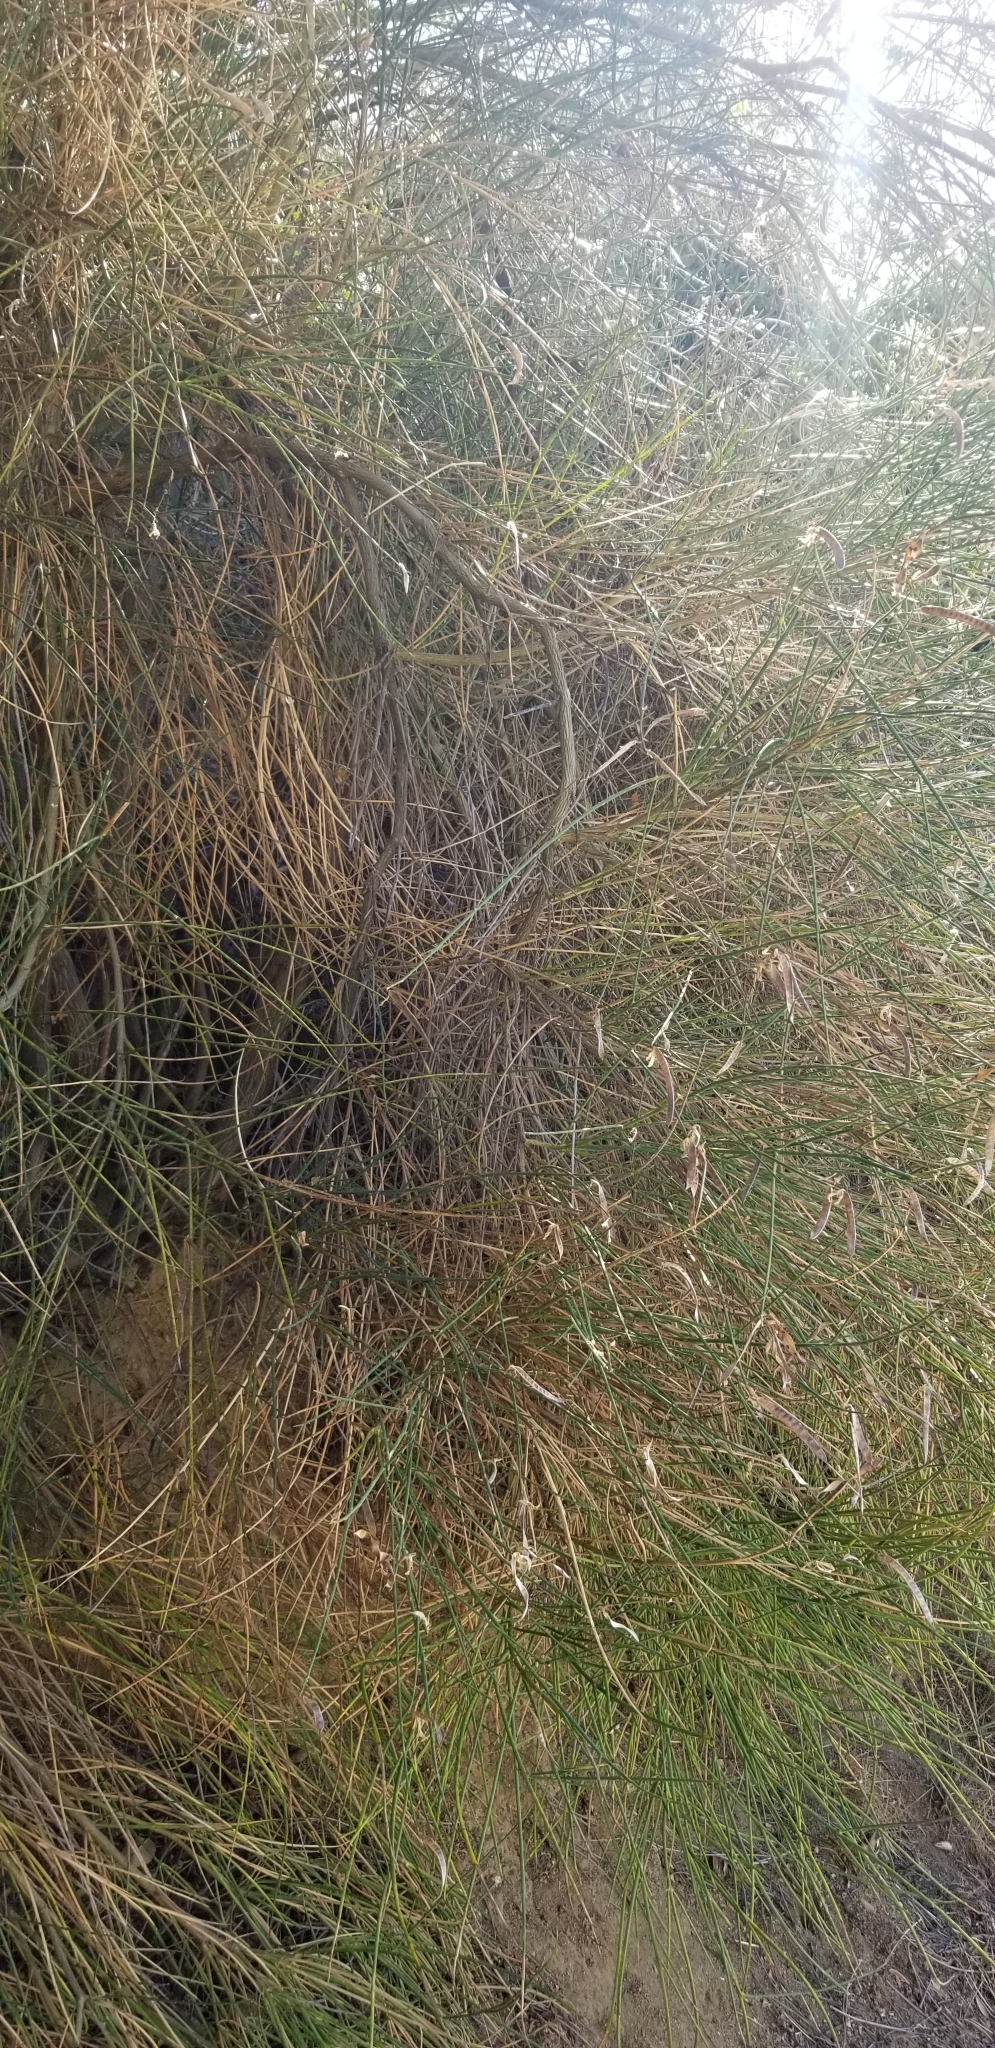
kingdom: Plantae
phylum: Tracheophyta
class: Magnoliopsida
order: Fabales
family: Fabaceae
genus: Spartium
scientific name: Spartium junceum
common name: Spanish broom
